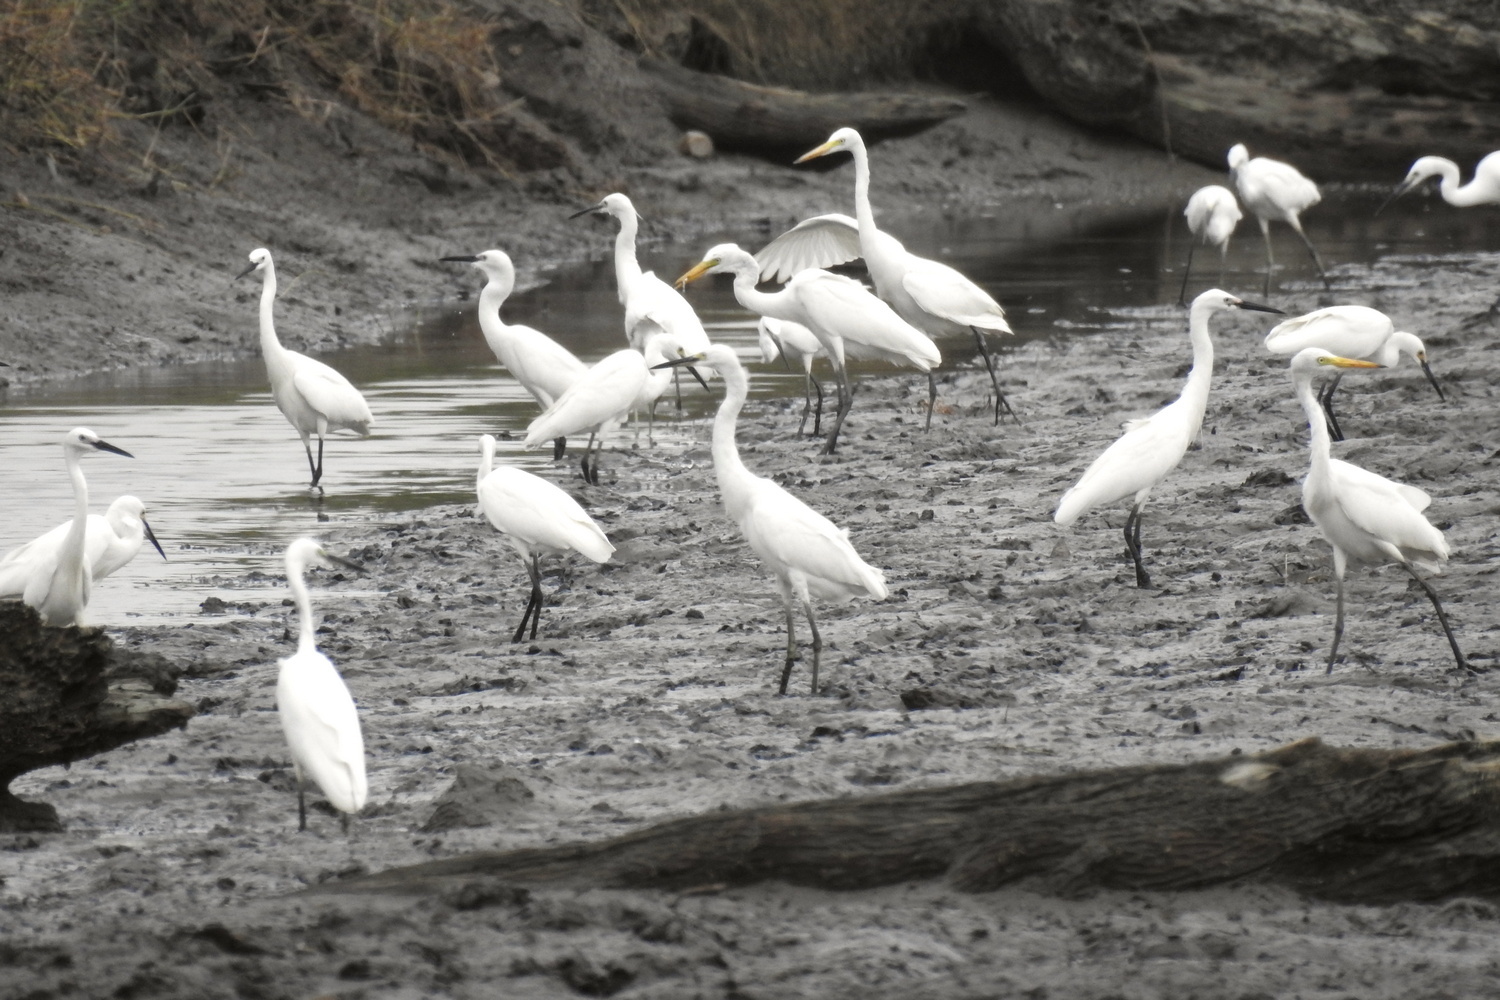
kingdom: Animalia
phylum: Chordata
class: Aves
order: Pelecaniformes
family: Ardeidae
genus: Egretta
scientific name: Egretta garzetta
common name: Little egret
